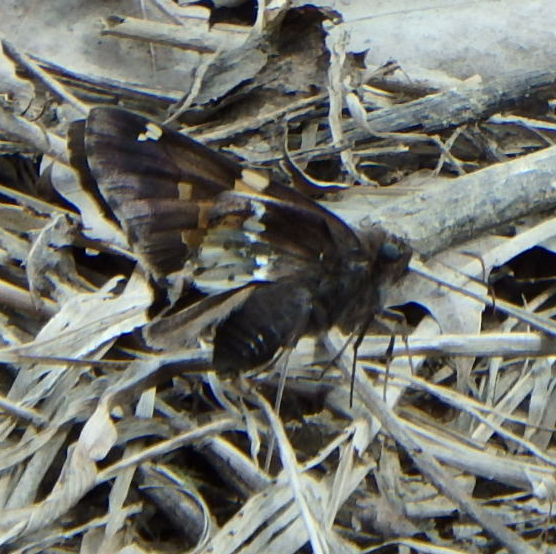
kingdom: Animalia
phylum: Arthropoda
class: Insecta
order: Lepidoptera
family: Hesperiidae
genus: Epargyreus
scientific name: Epargyreus clarus
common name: Silver-spotted skipper
